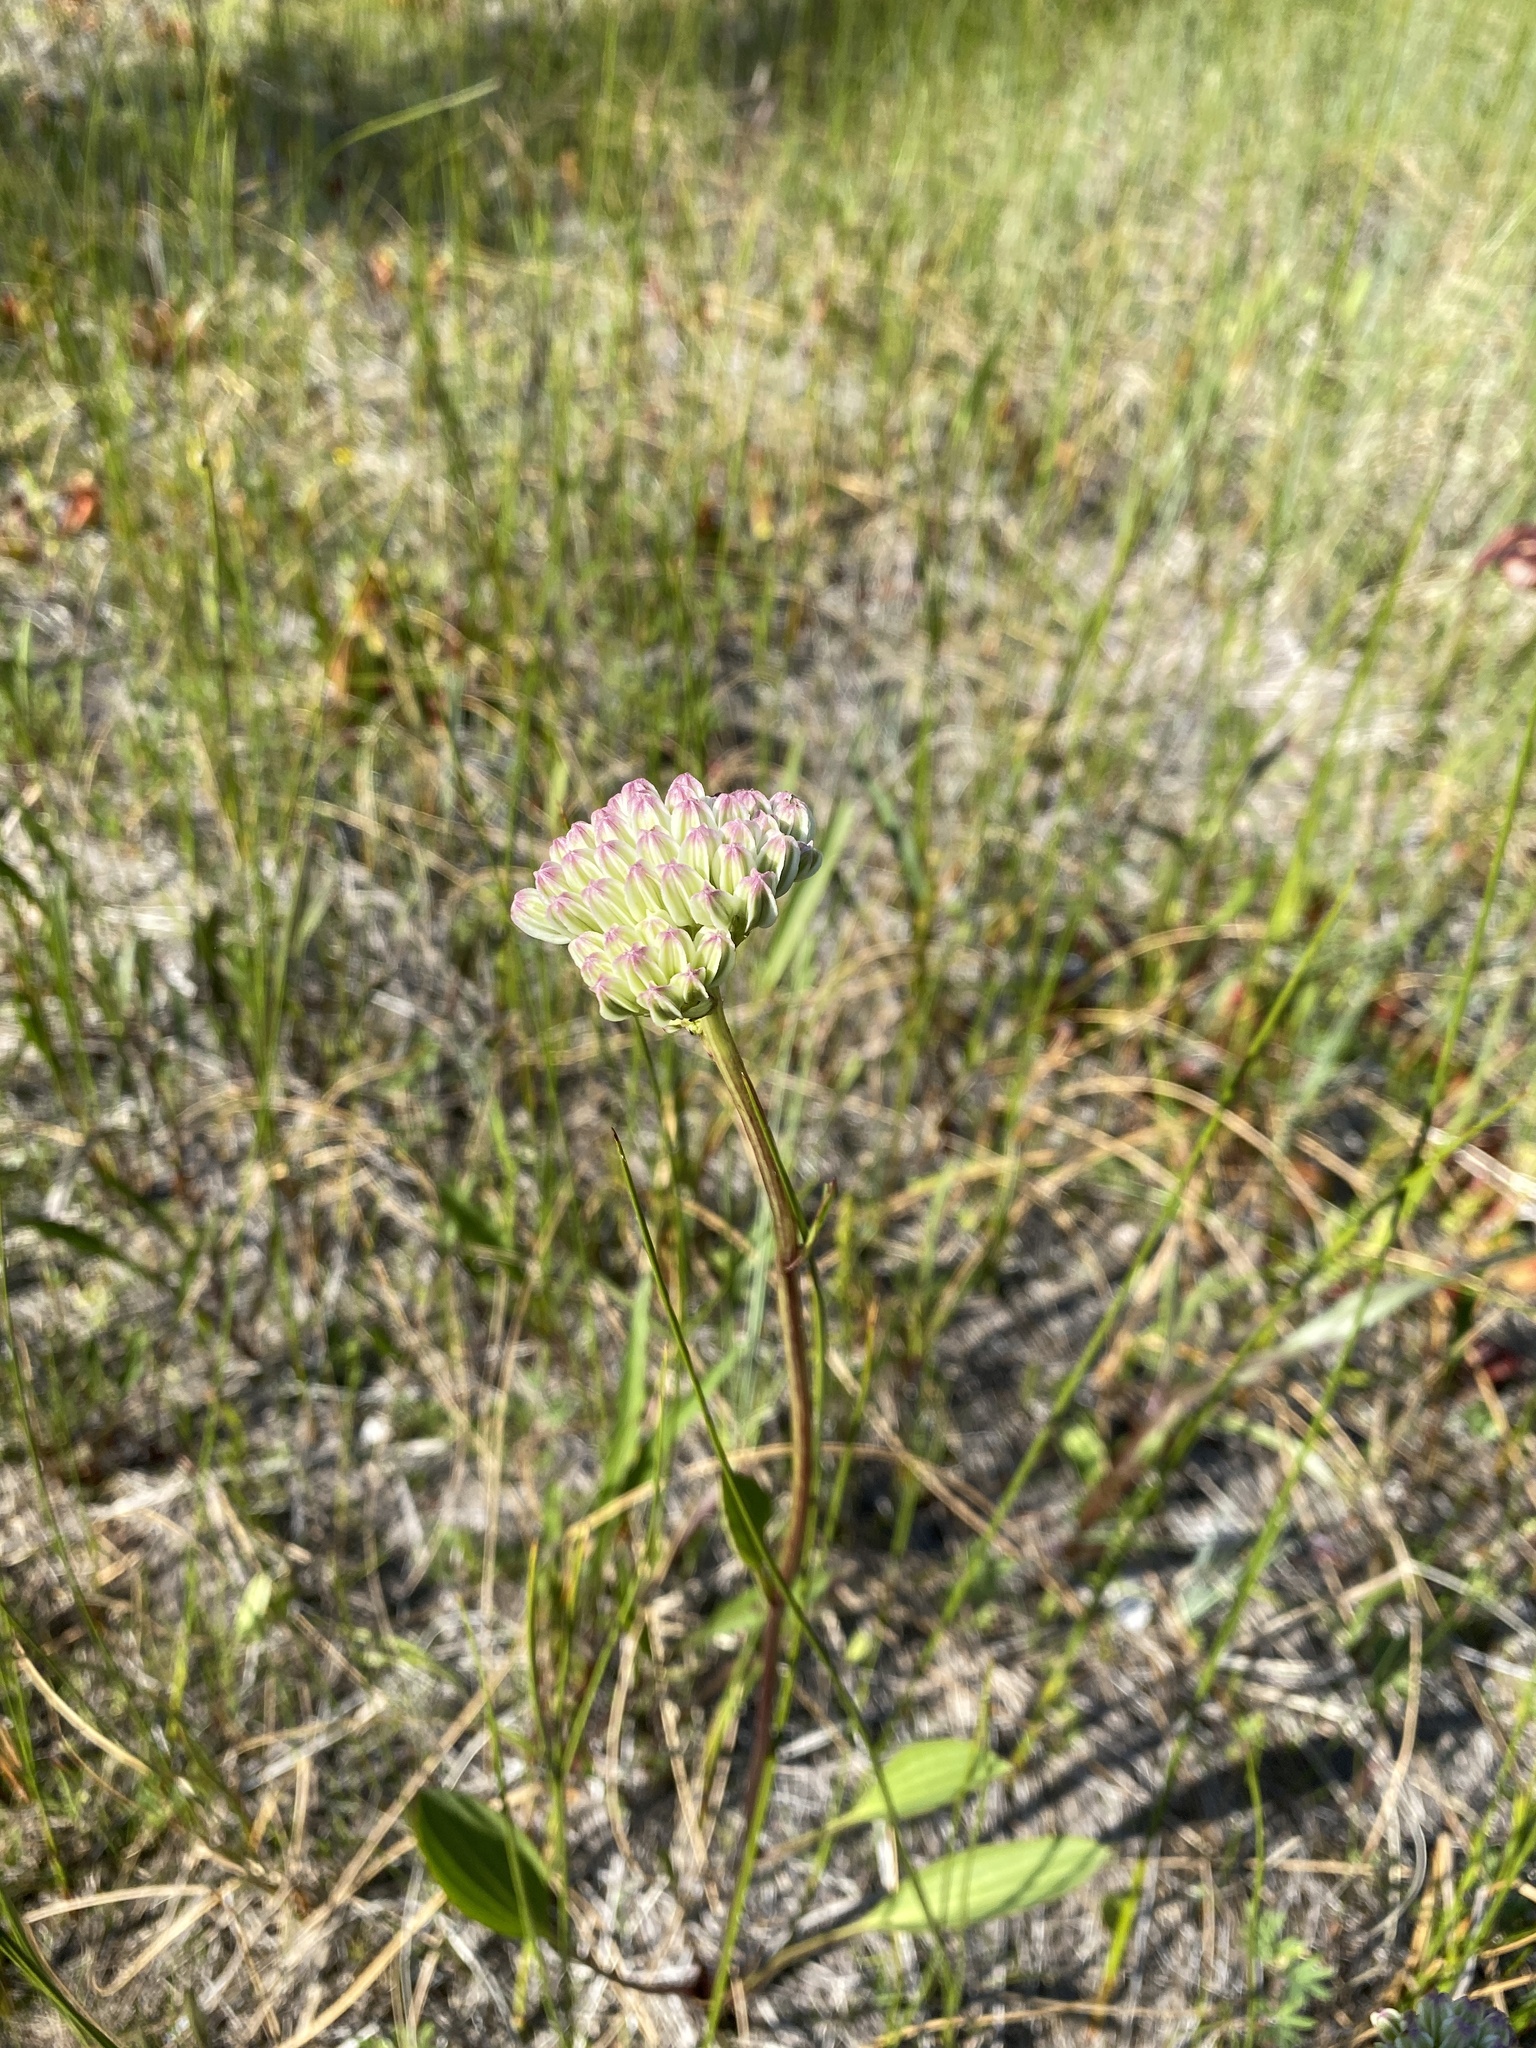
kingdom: Plantae
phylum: Tracheophyta
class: Magnoliopsida
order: Asterales
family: Asteraceae
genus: Arnoglossum
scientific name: Arnoglossum plantagineum
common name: Groove-stemmed indian-plantain
